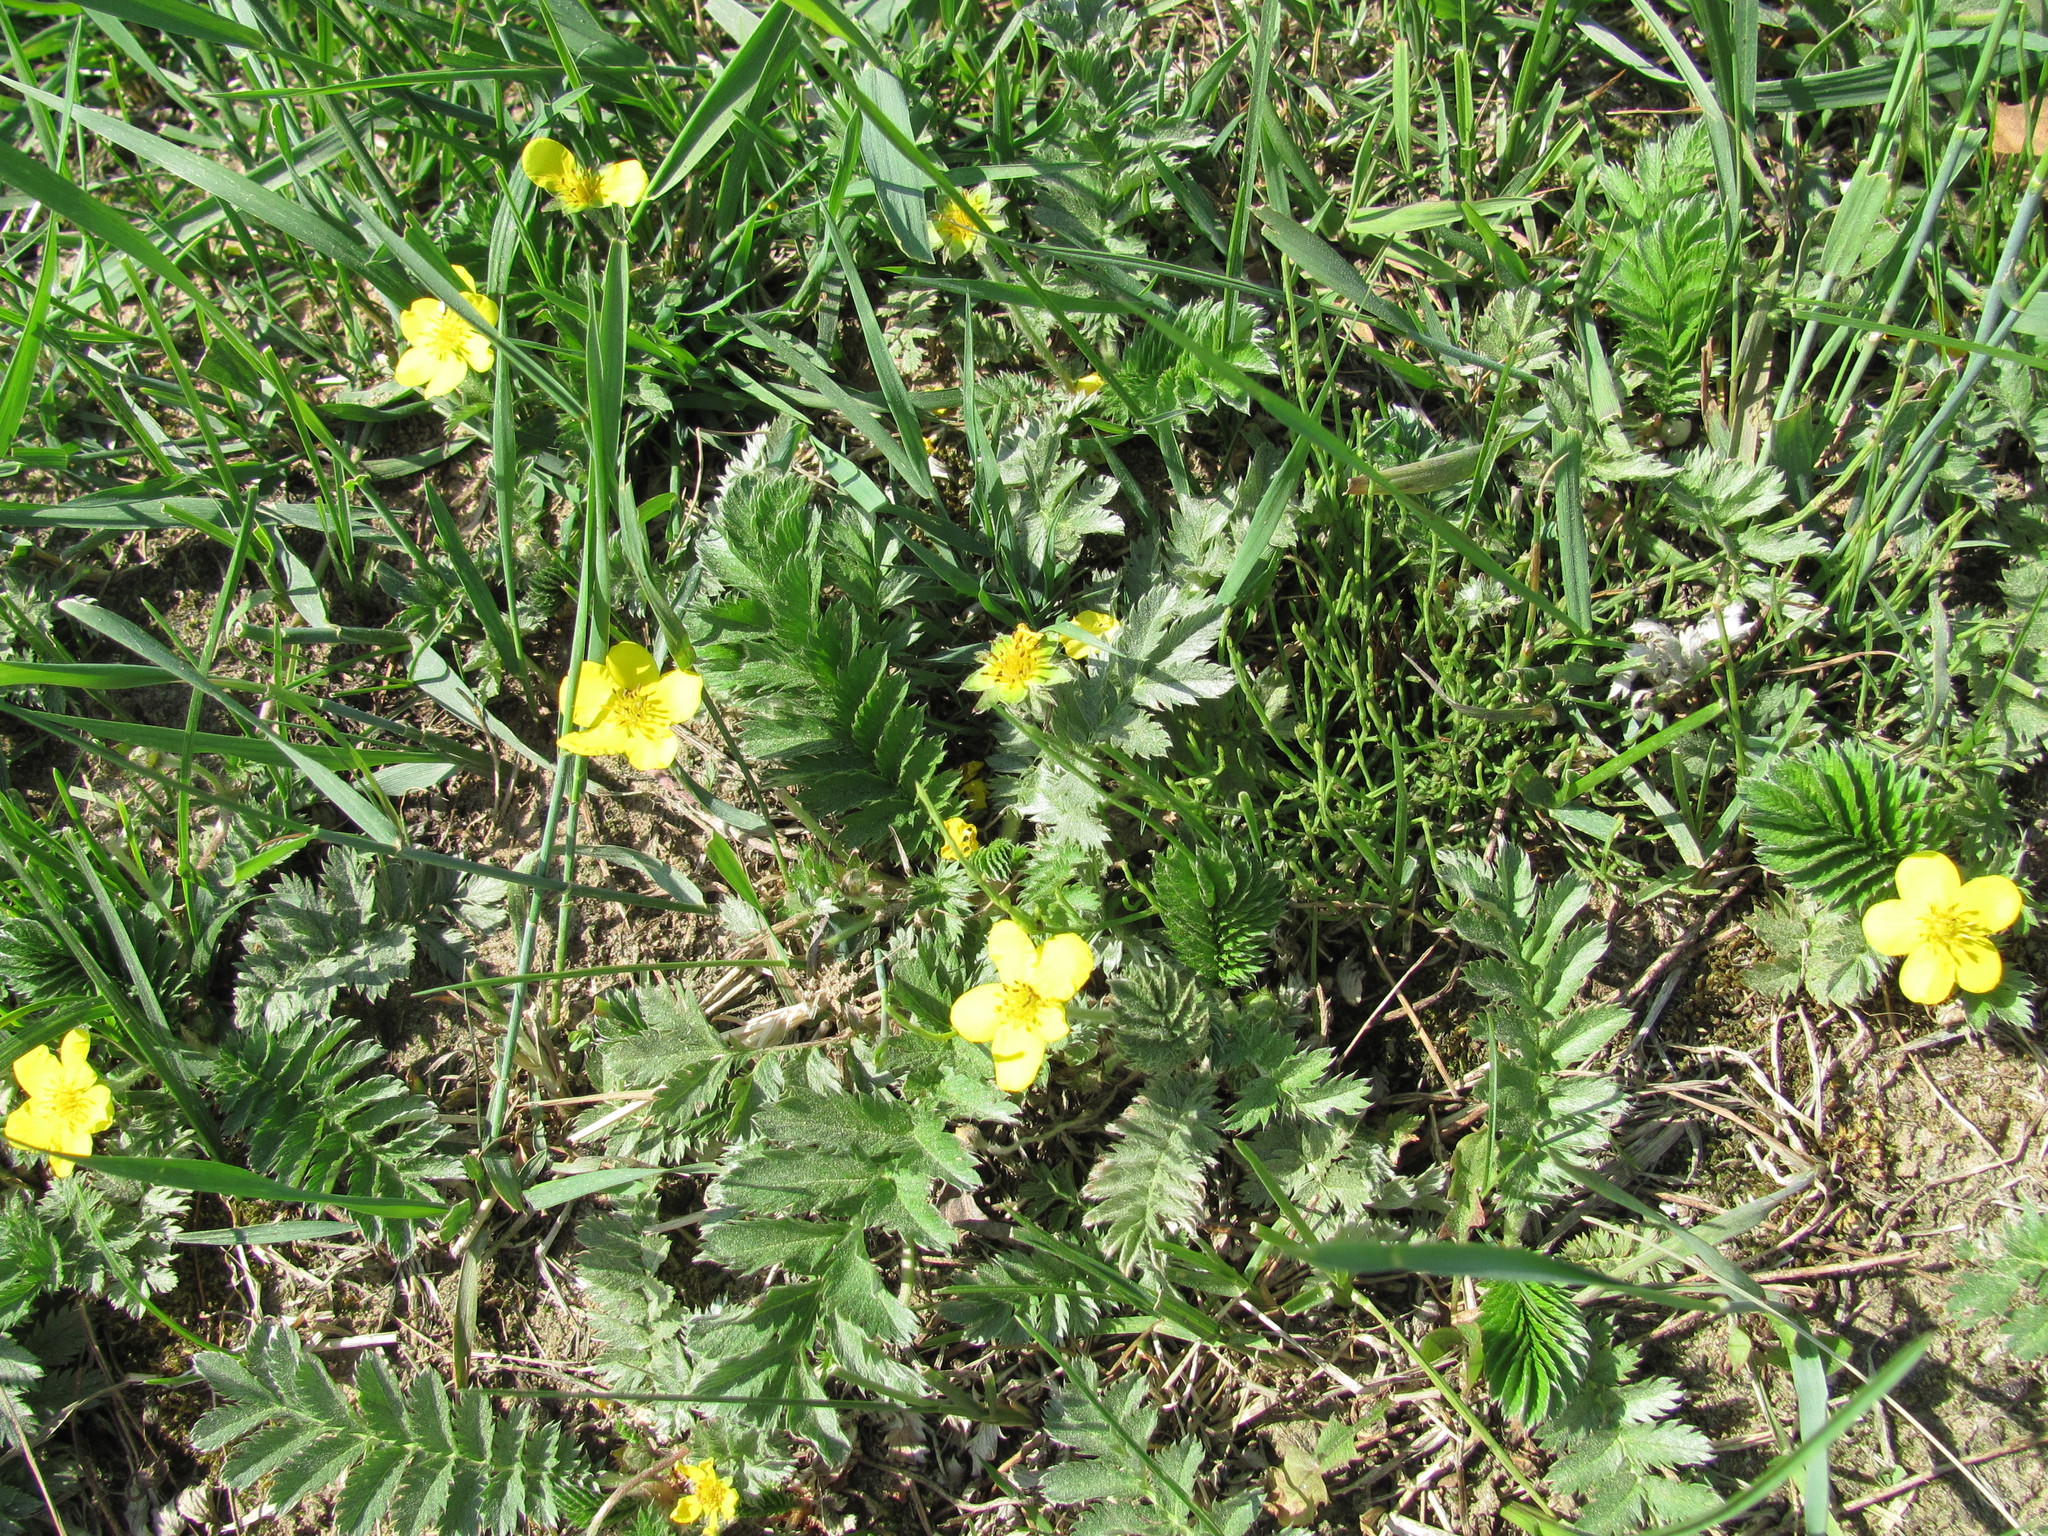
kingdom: Plantae
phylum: Tracheophyta
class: Magnoliopsida
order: Rosales
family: Rosaceae
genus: Argentina
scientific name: Argentina anserina
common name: Common silverweed
